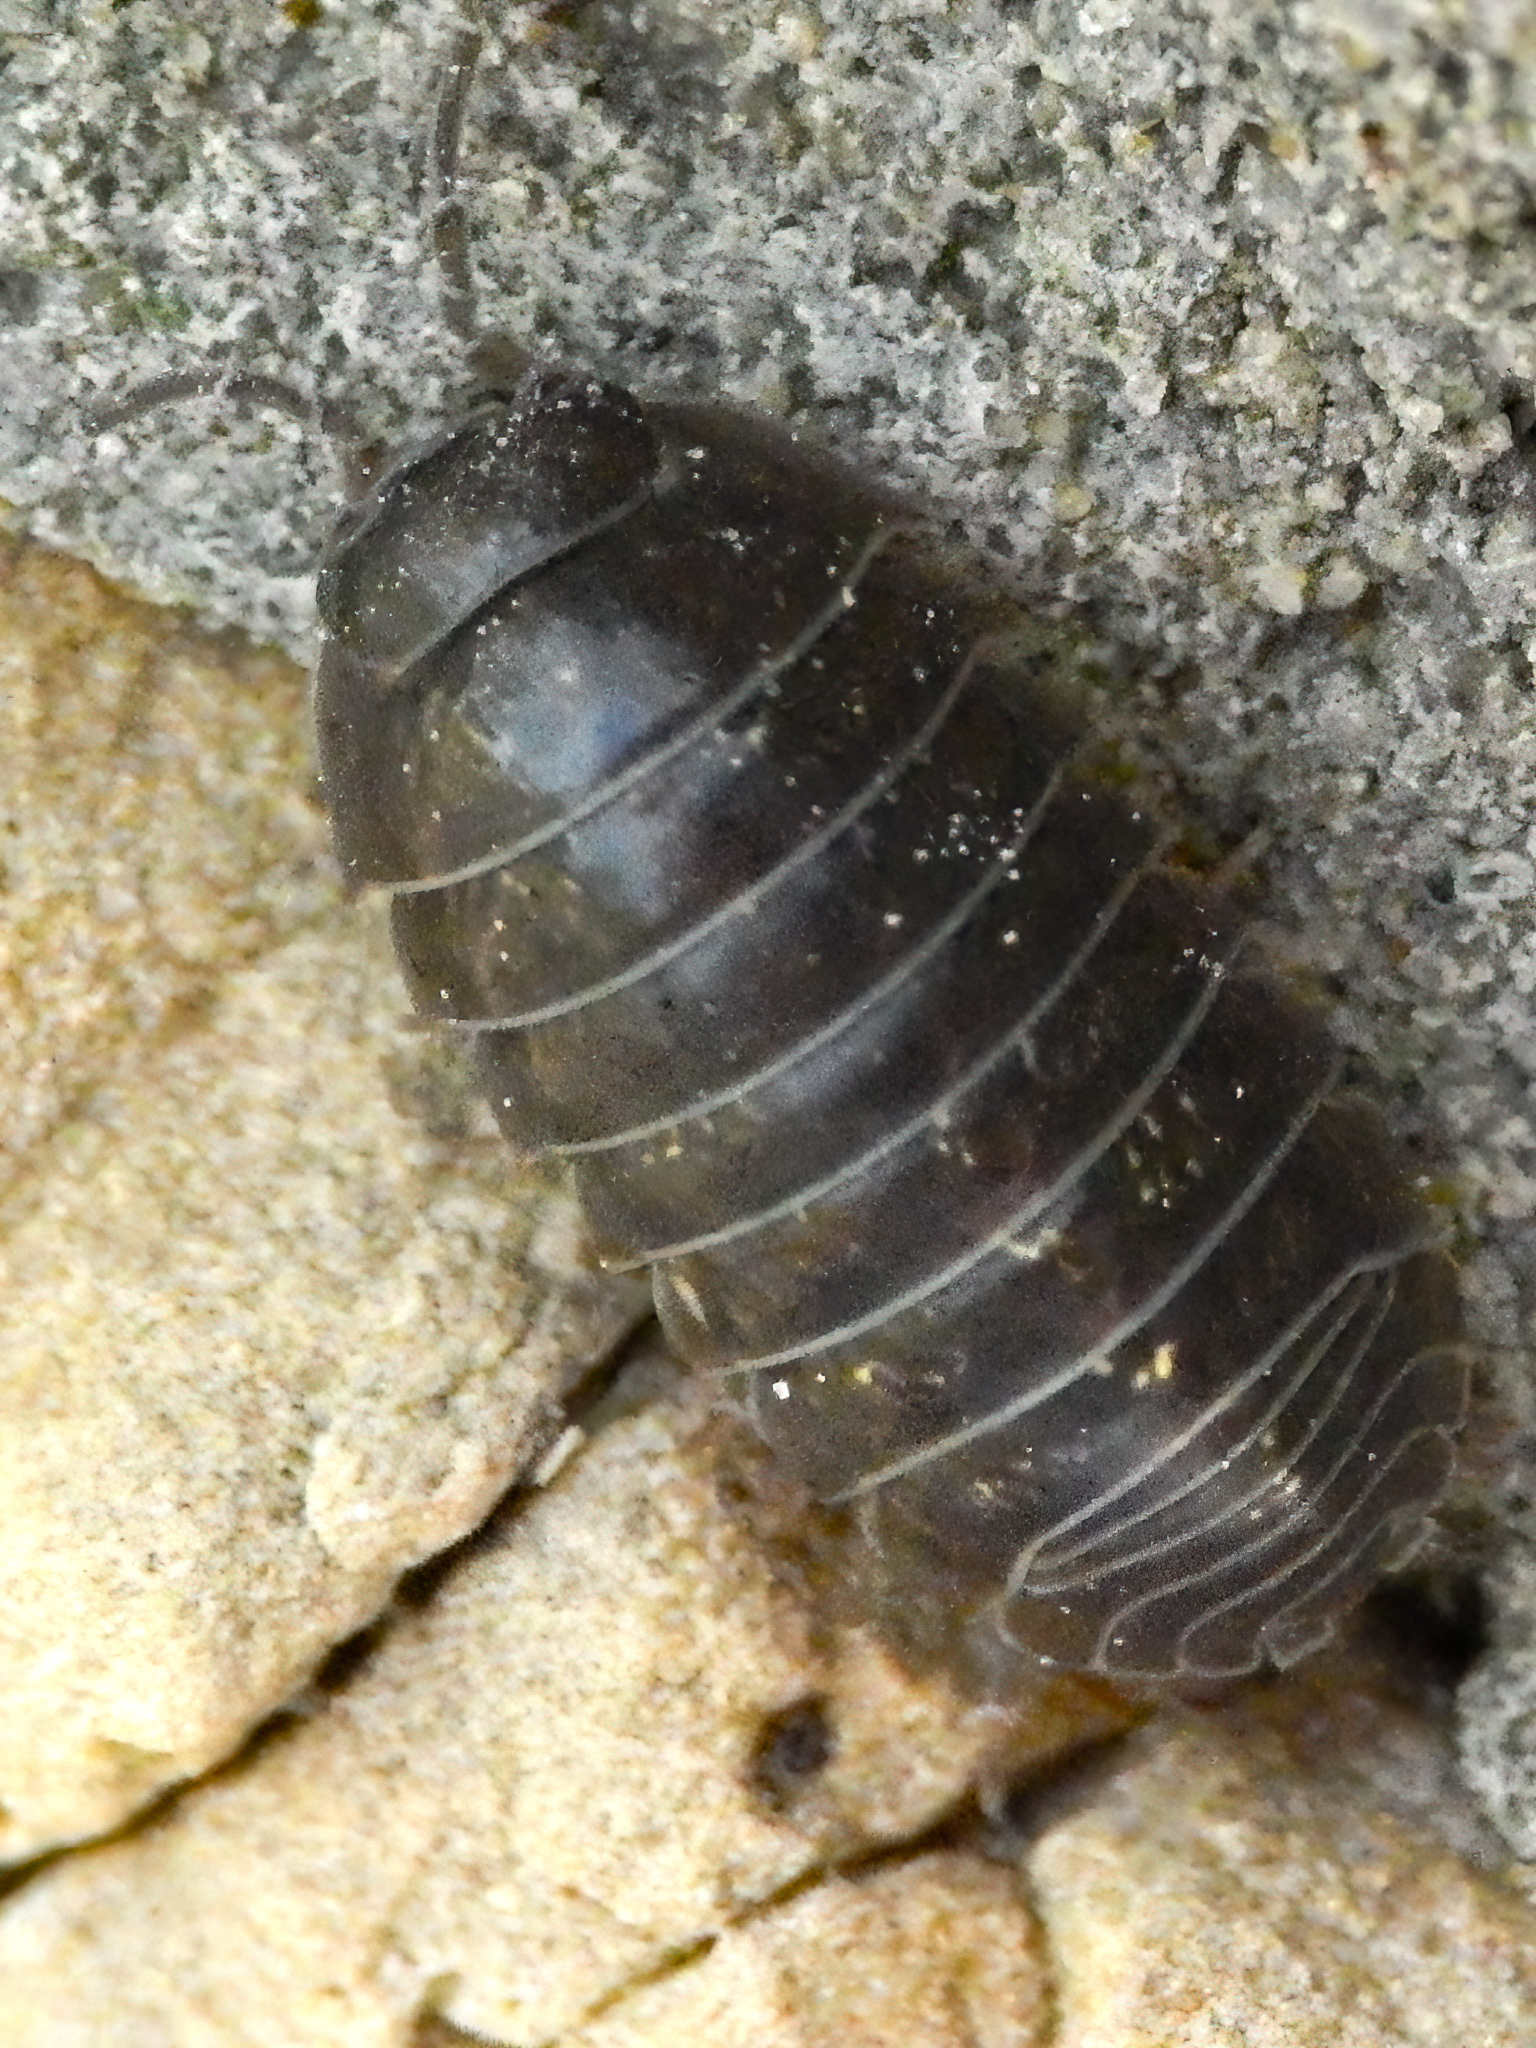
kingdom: Animalia
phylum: Arthropoda
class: Malacostraca
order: Isopoda
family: Armadillidiidae
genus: Armadillidium
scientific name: Armadillidium vulgare
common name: Common pill woodlouse
